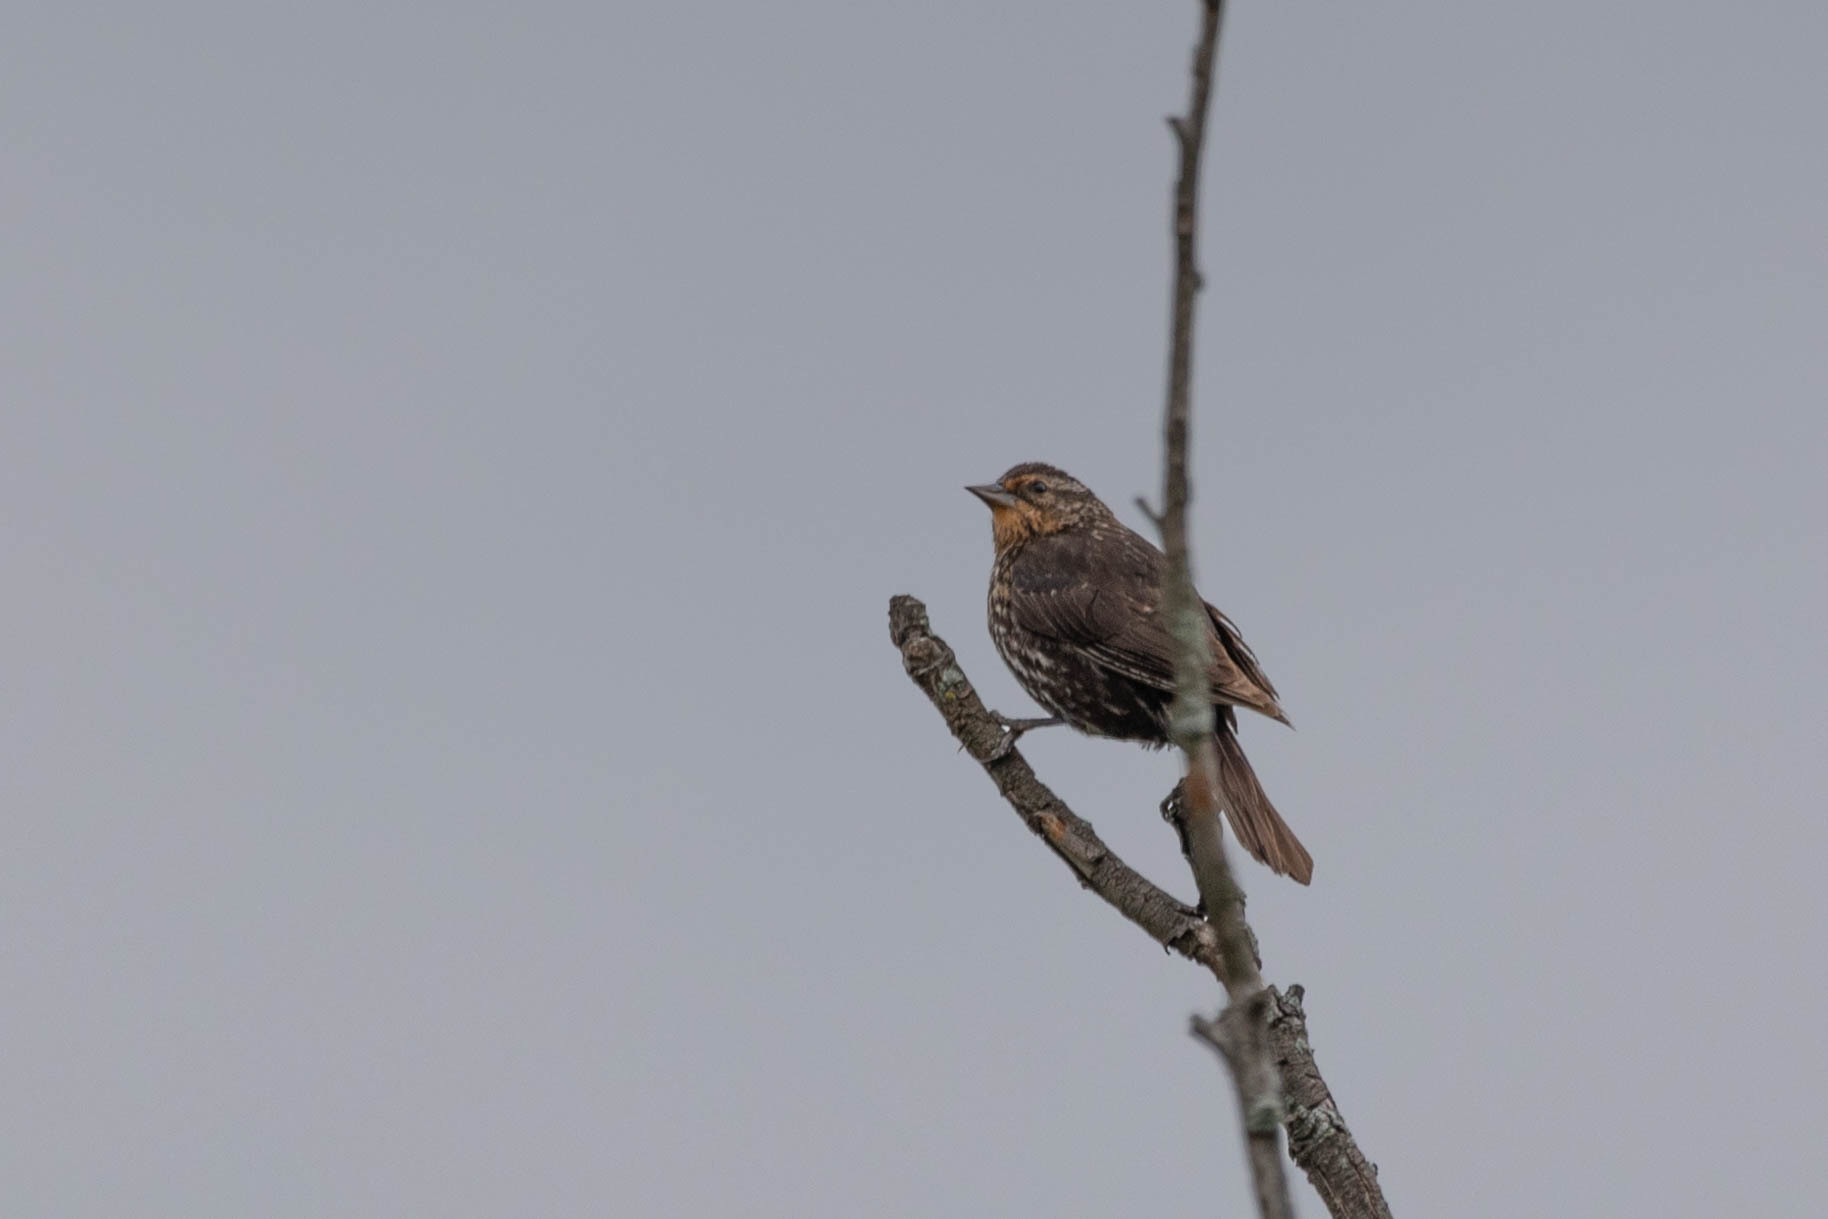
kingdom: Animalia
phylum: Chordata
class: Aves
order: Passeriformes
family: Icteridae
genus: Agelaius
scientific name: Agelaius phoeniceus
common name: Red-winged blackbird
